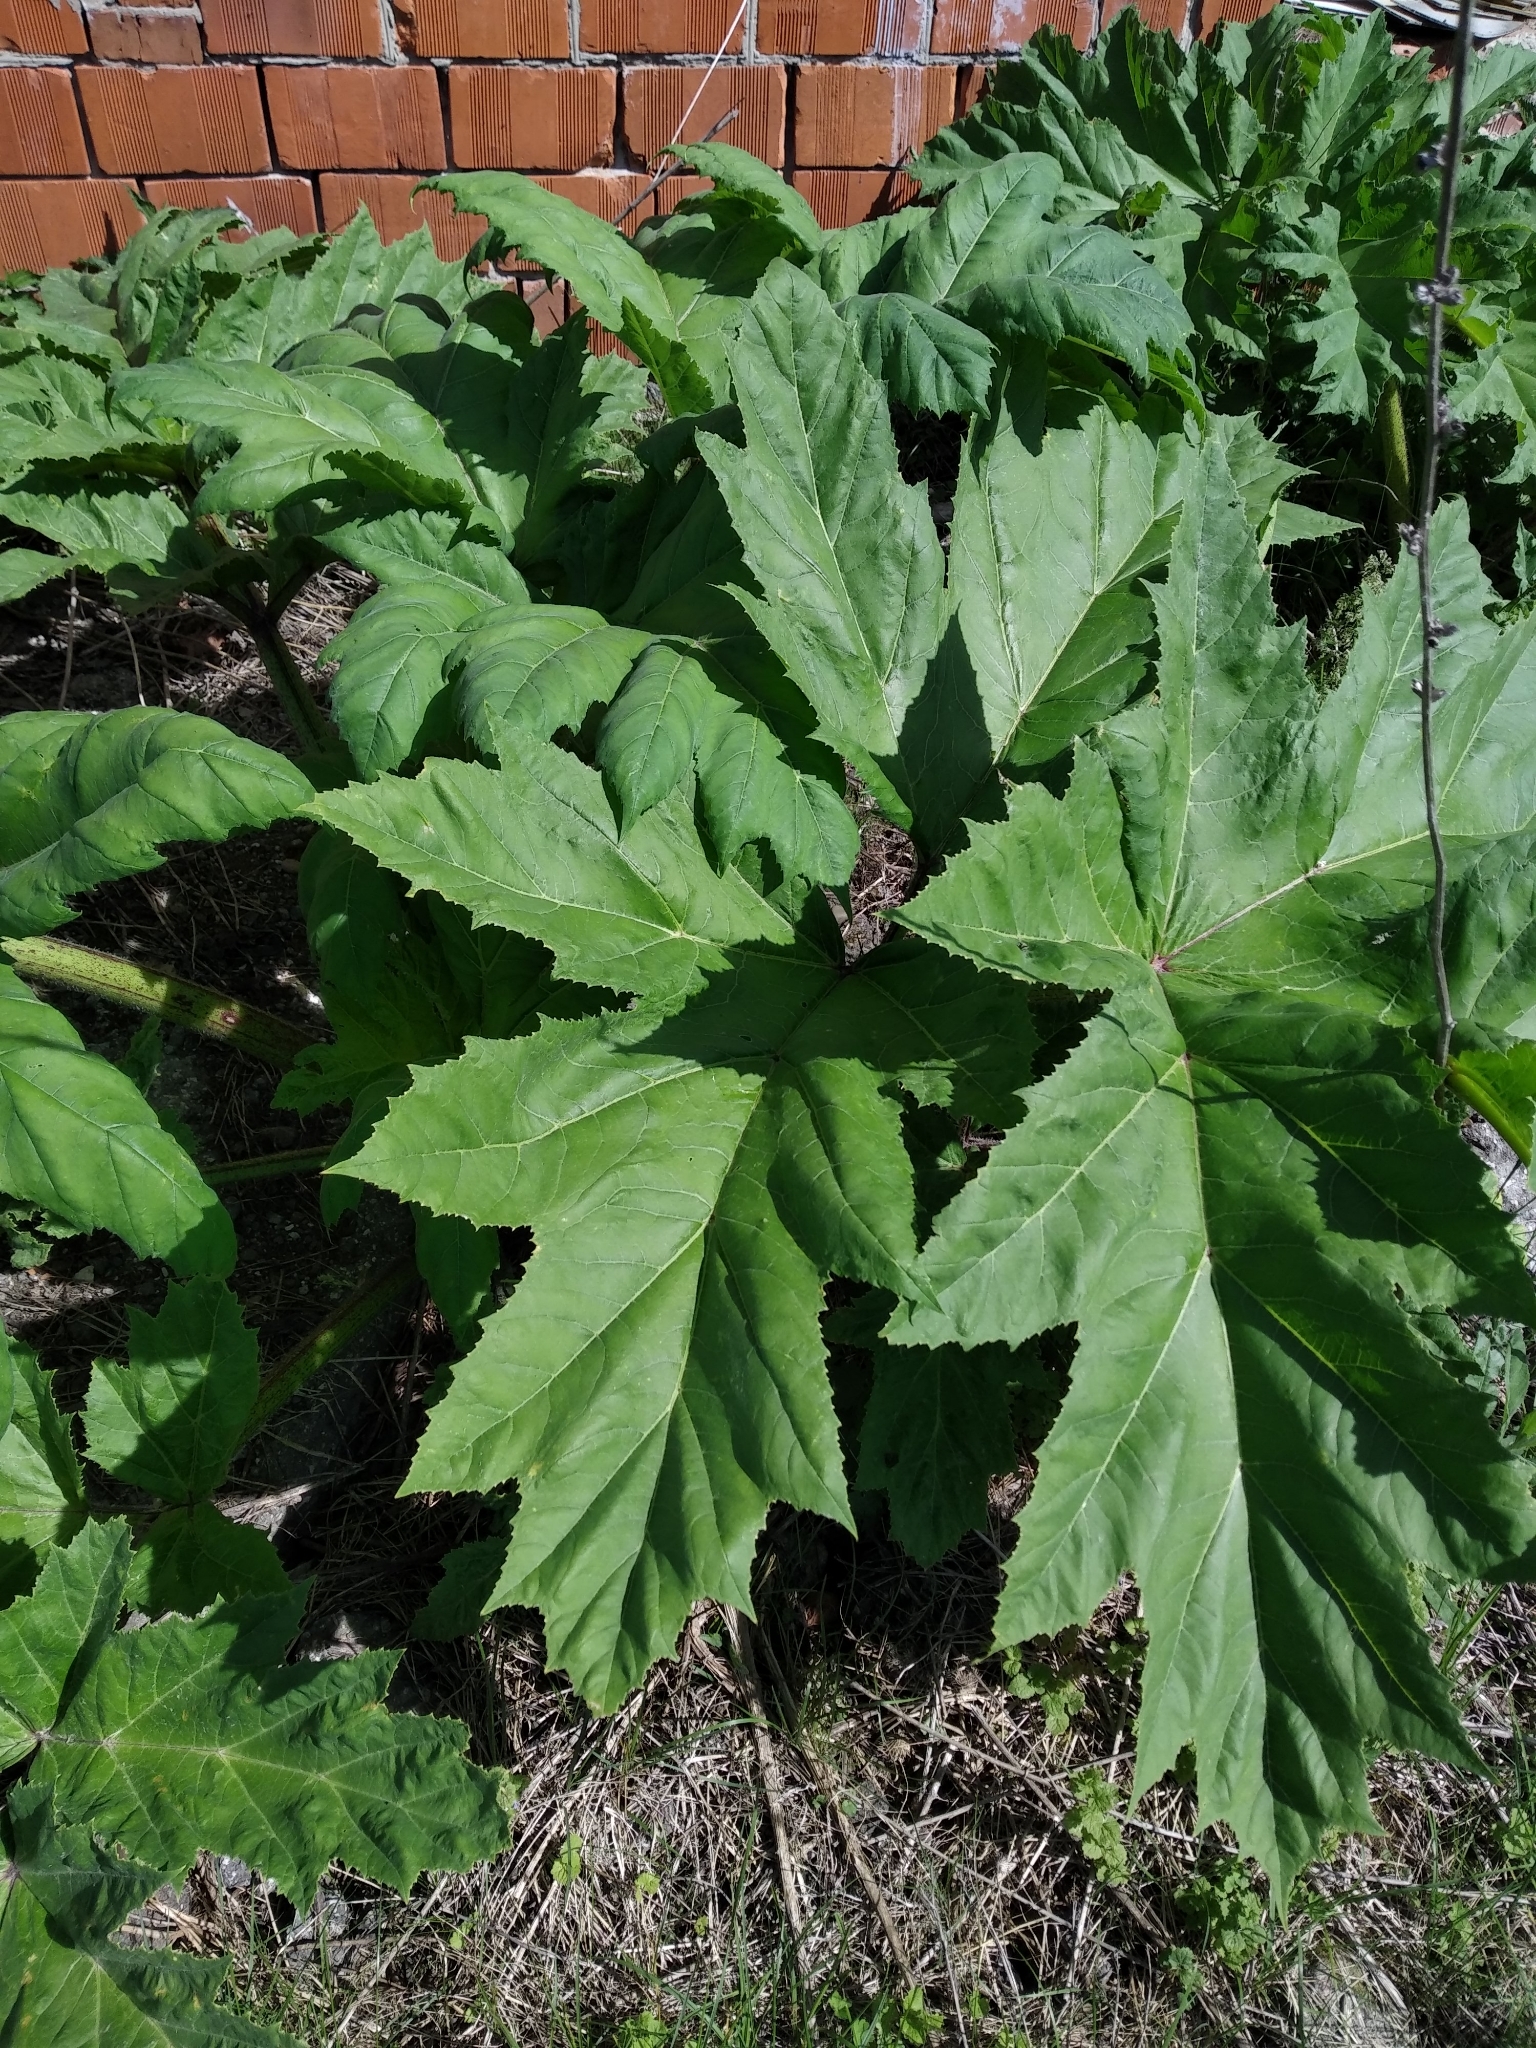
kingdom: Plantae
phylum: Tracheophyta
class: Magnoliopsida
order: Apiales
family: Apiaceae
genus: Heracleum
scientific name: Heracleum sosnowskyi
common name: Sosnowsky's hogweed
